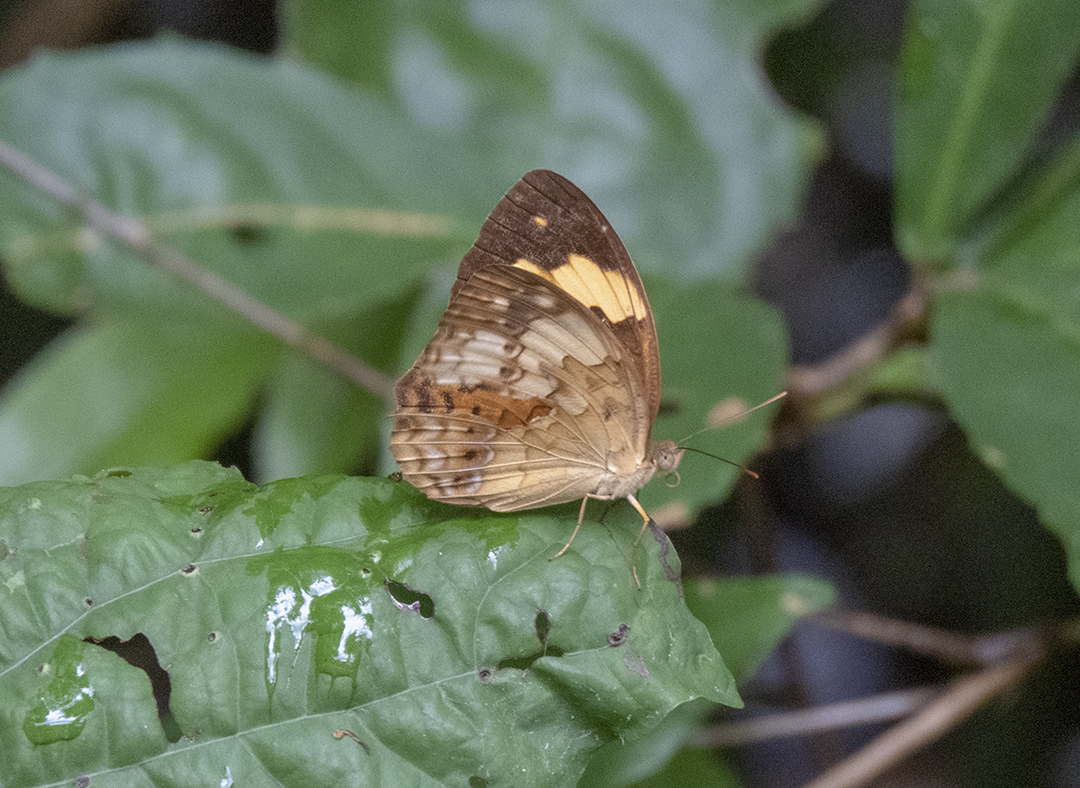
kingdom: Animalia
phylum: Arthropoda
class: Insecta
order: Lepidoptera
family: Nymphalidae
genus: Cupha
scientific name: Cupha erymanthis
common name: Rustic
